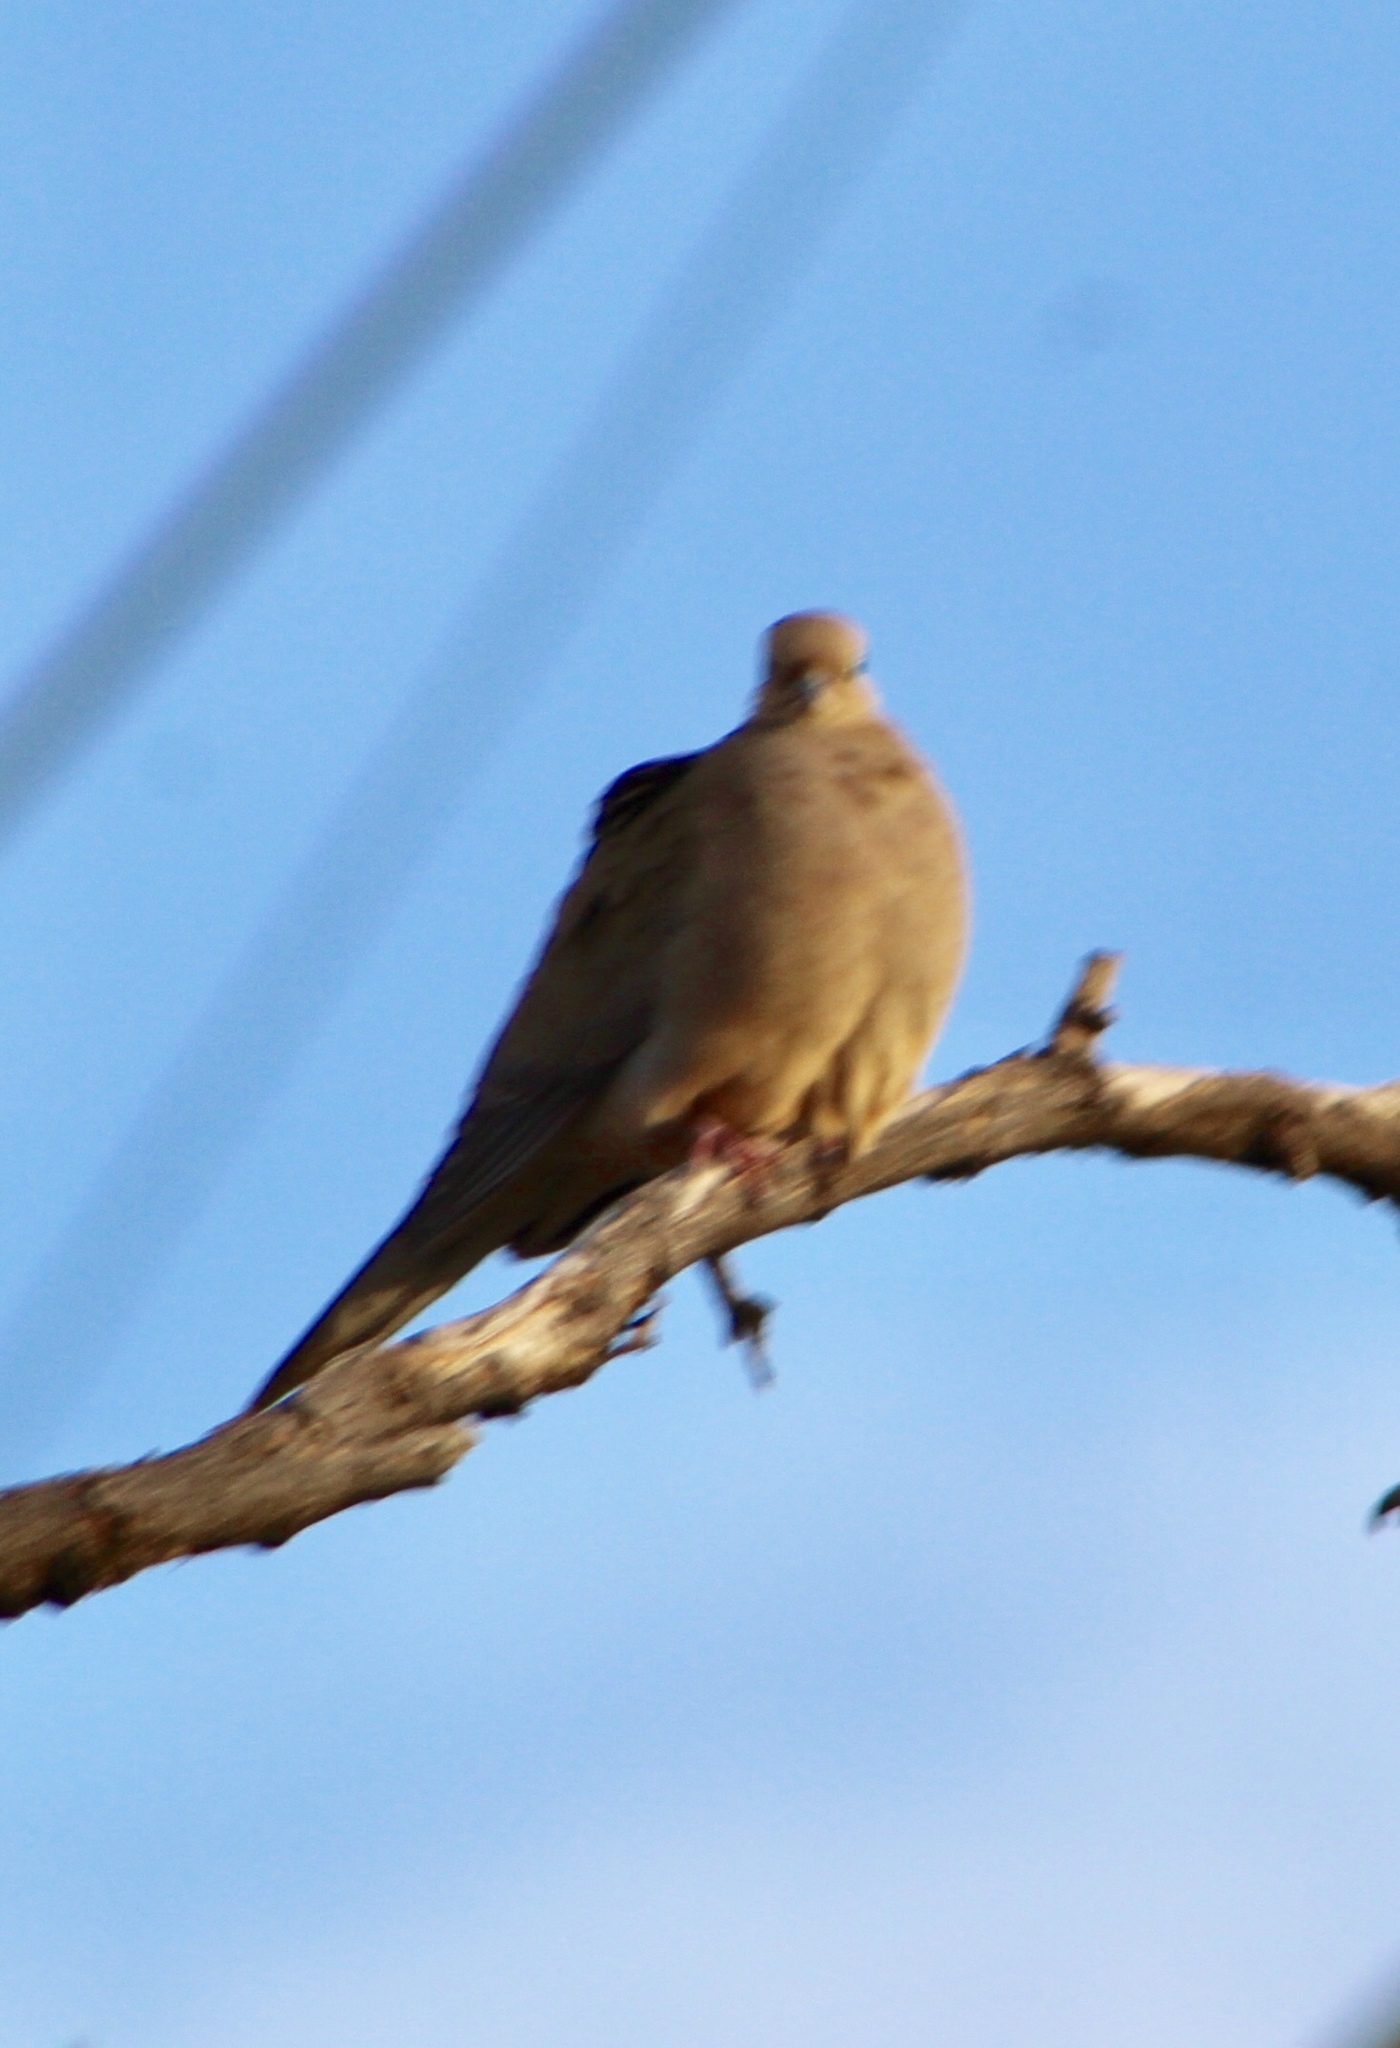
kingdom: Animalia
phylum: Chordata
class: Aves
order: Columbiformes
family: Columbidae
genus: Zenaida
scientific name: Zenaida macroura
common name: Mourning dove
